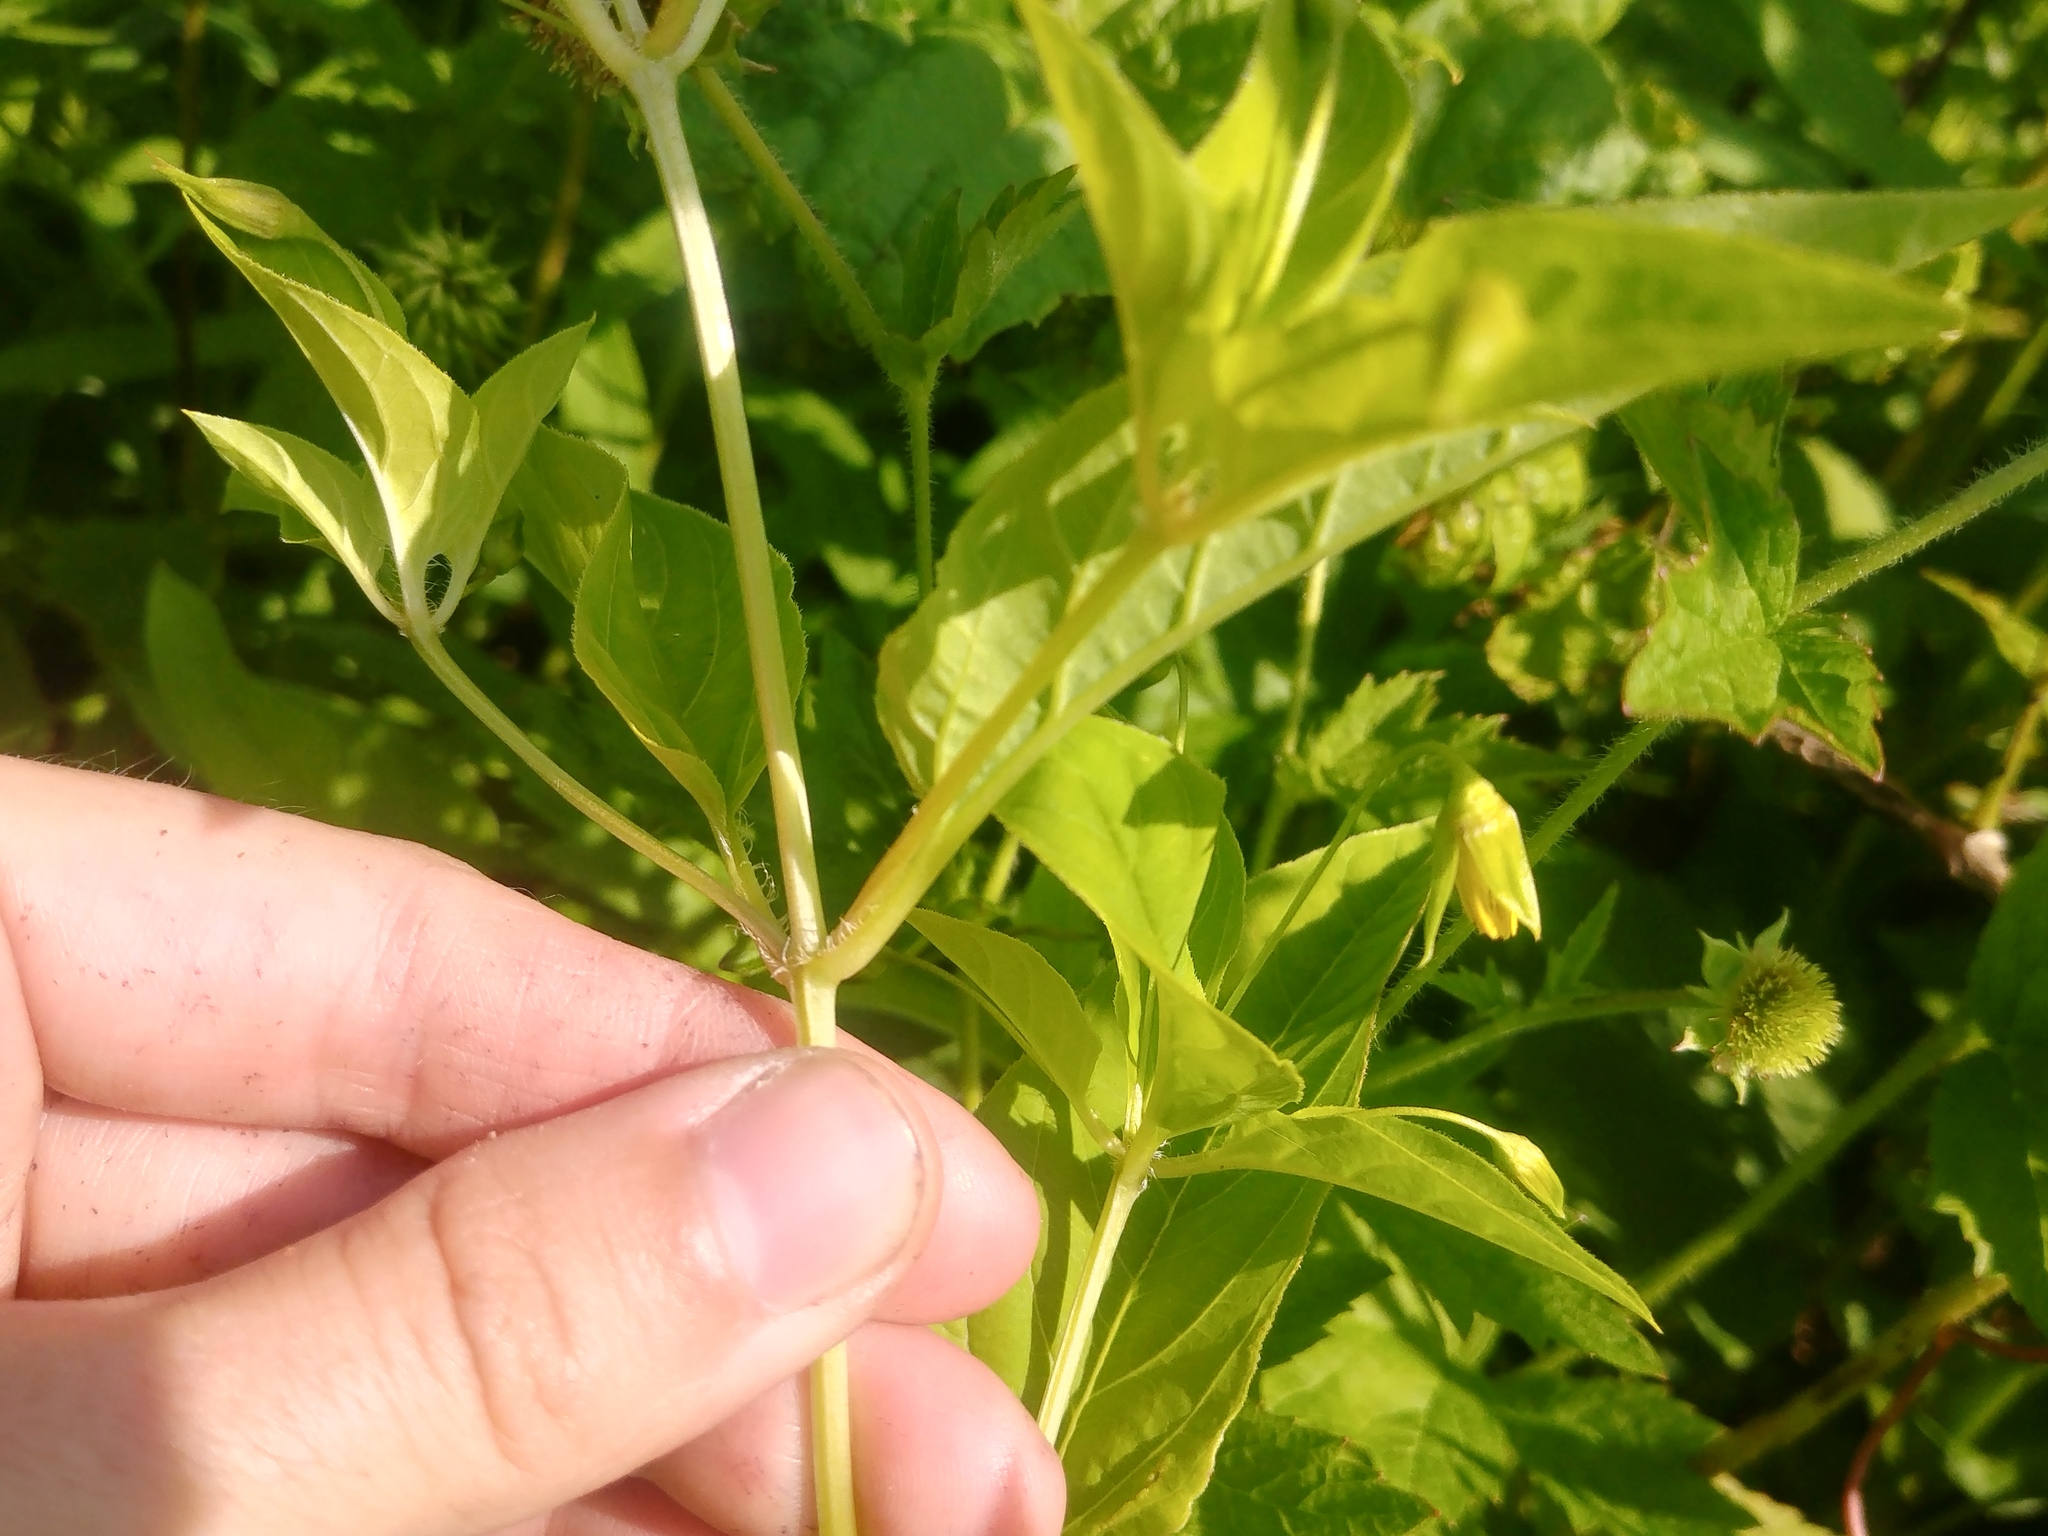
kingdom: Plantae
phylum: Tracheophyta
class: Magnoliopsida
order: Ericales
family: Primulaceae
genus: Lysimachia
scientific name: Lysimachia ciliata
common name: Fringed loosestrife
